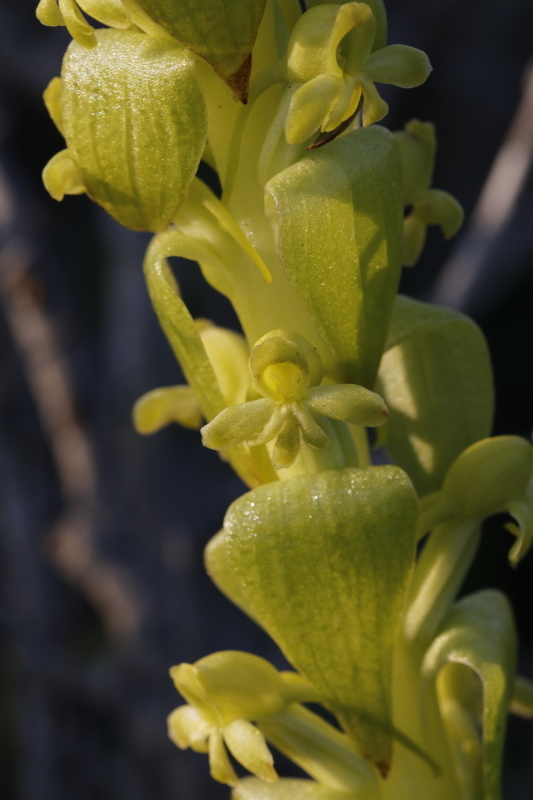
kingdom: Plantae
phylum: Tracheophyta
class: Liliopsida
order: Asparagales
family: Orchidaceae
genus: Satyrium
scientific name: Satyrium odorum
